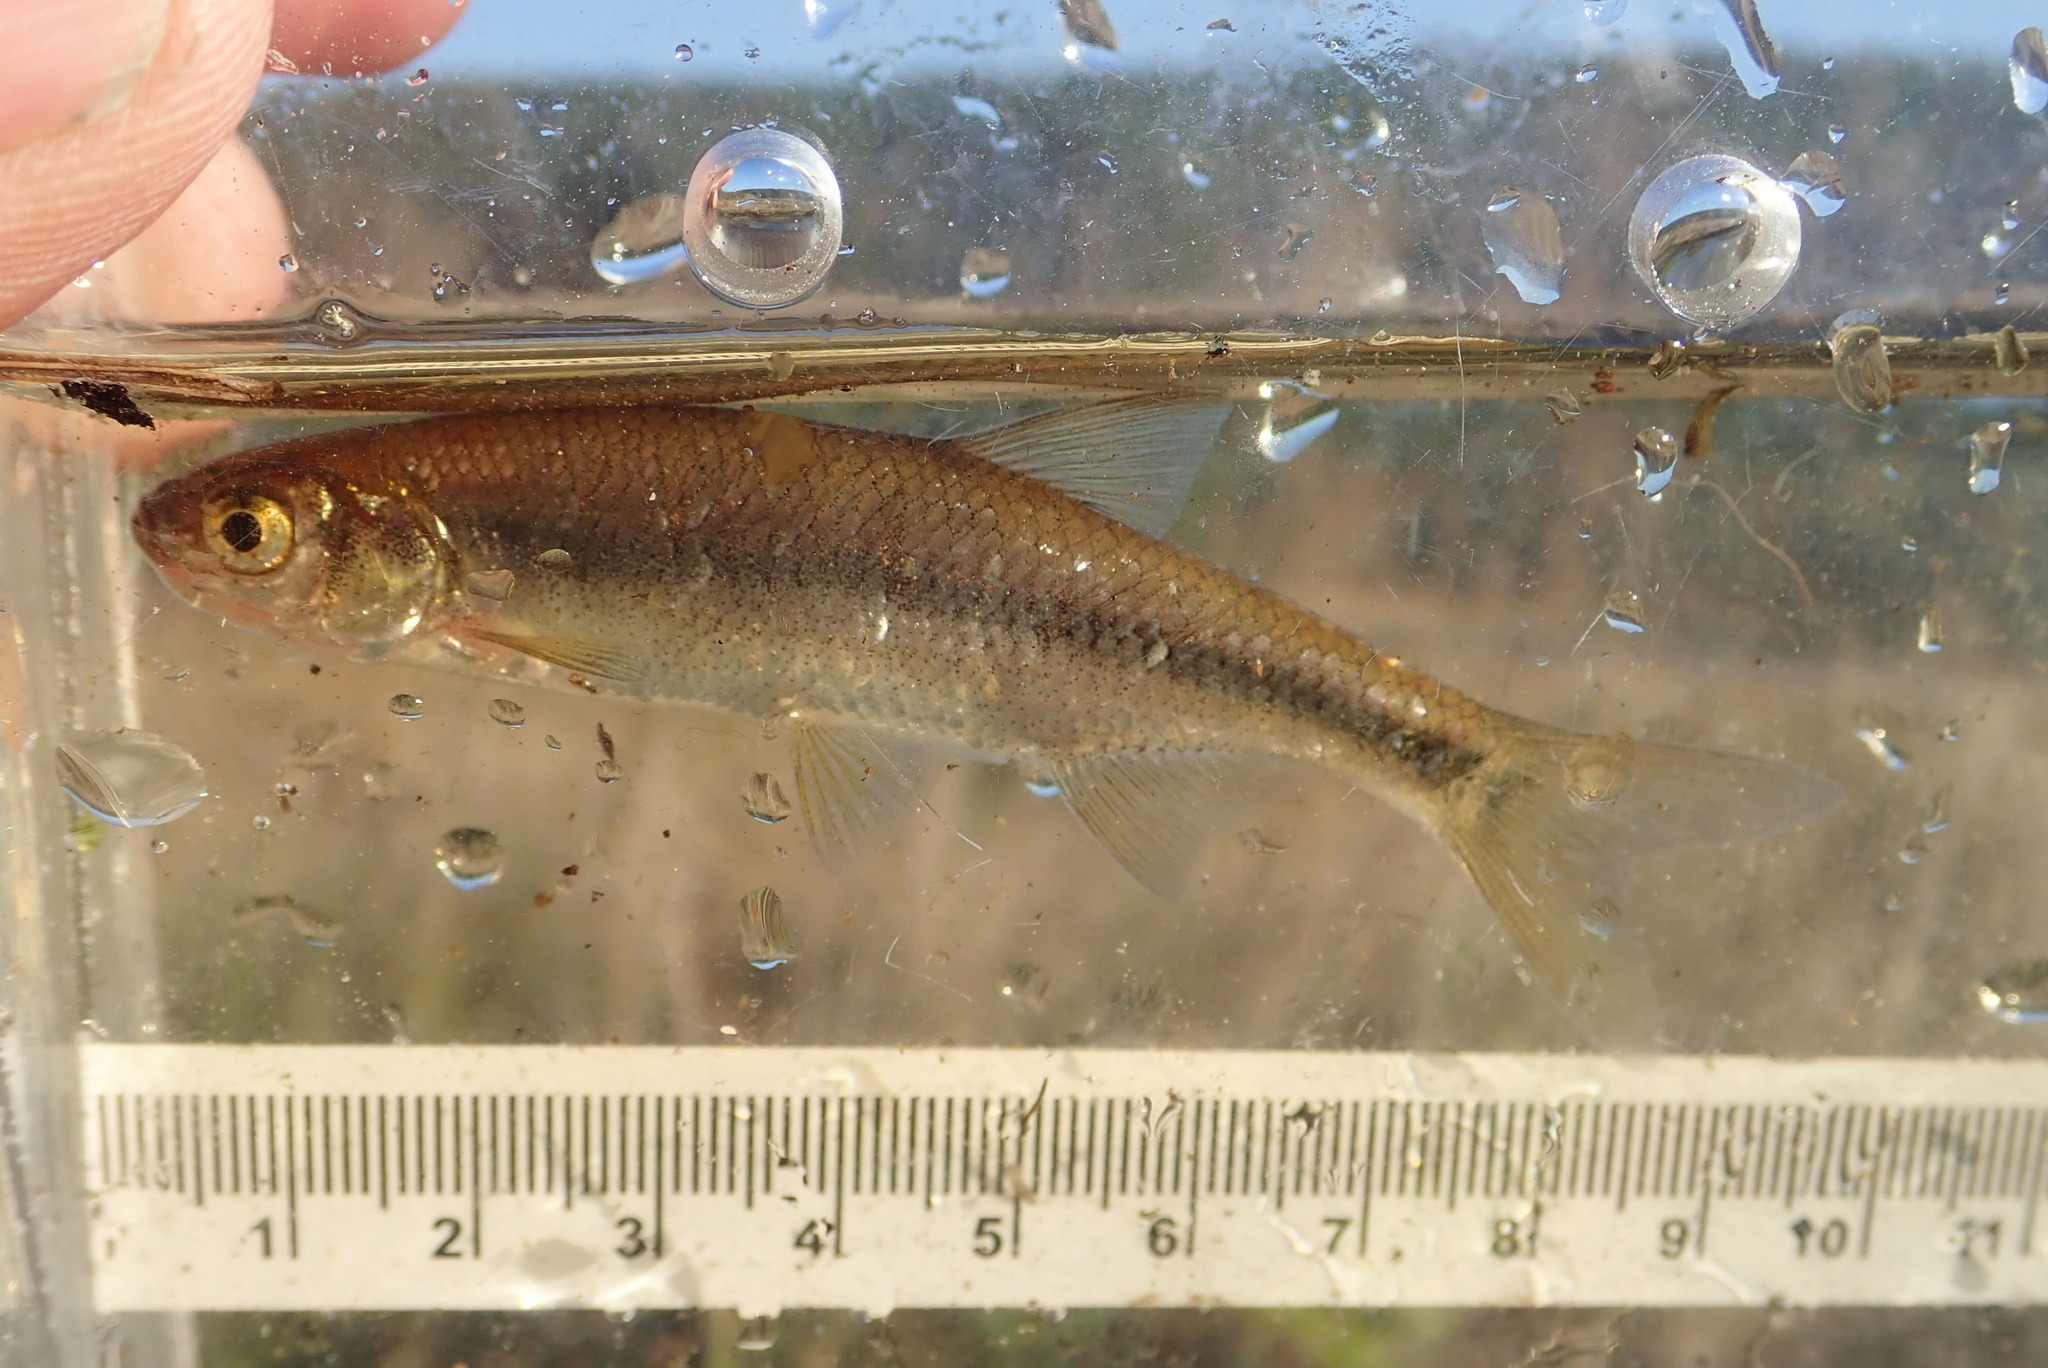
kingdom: Animalia
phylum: Chordata
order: Cypriniformes
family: Cyprinidae
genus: Notemigonus
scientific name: Notemigonus crysoleucas
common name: Golden shiner
